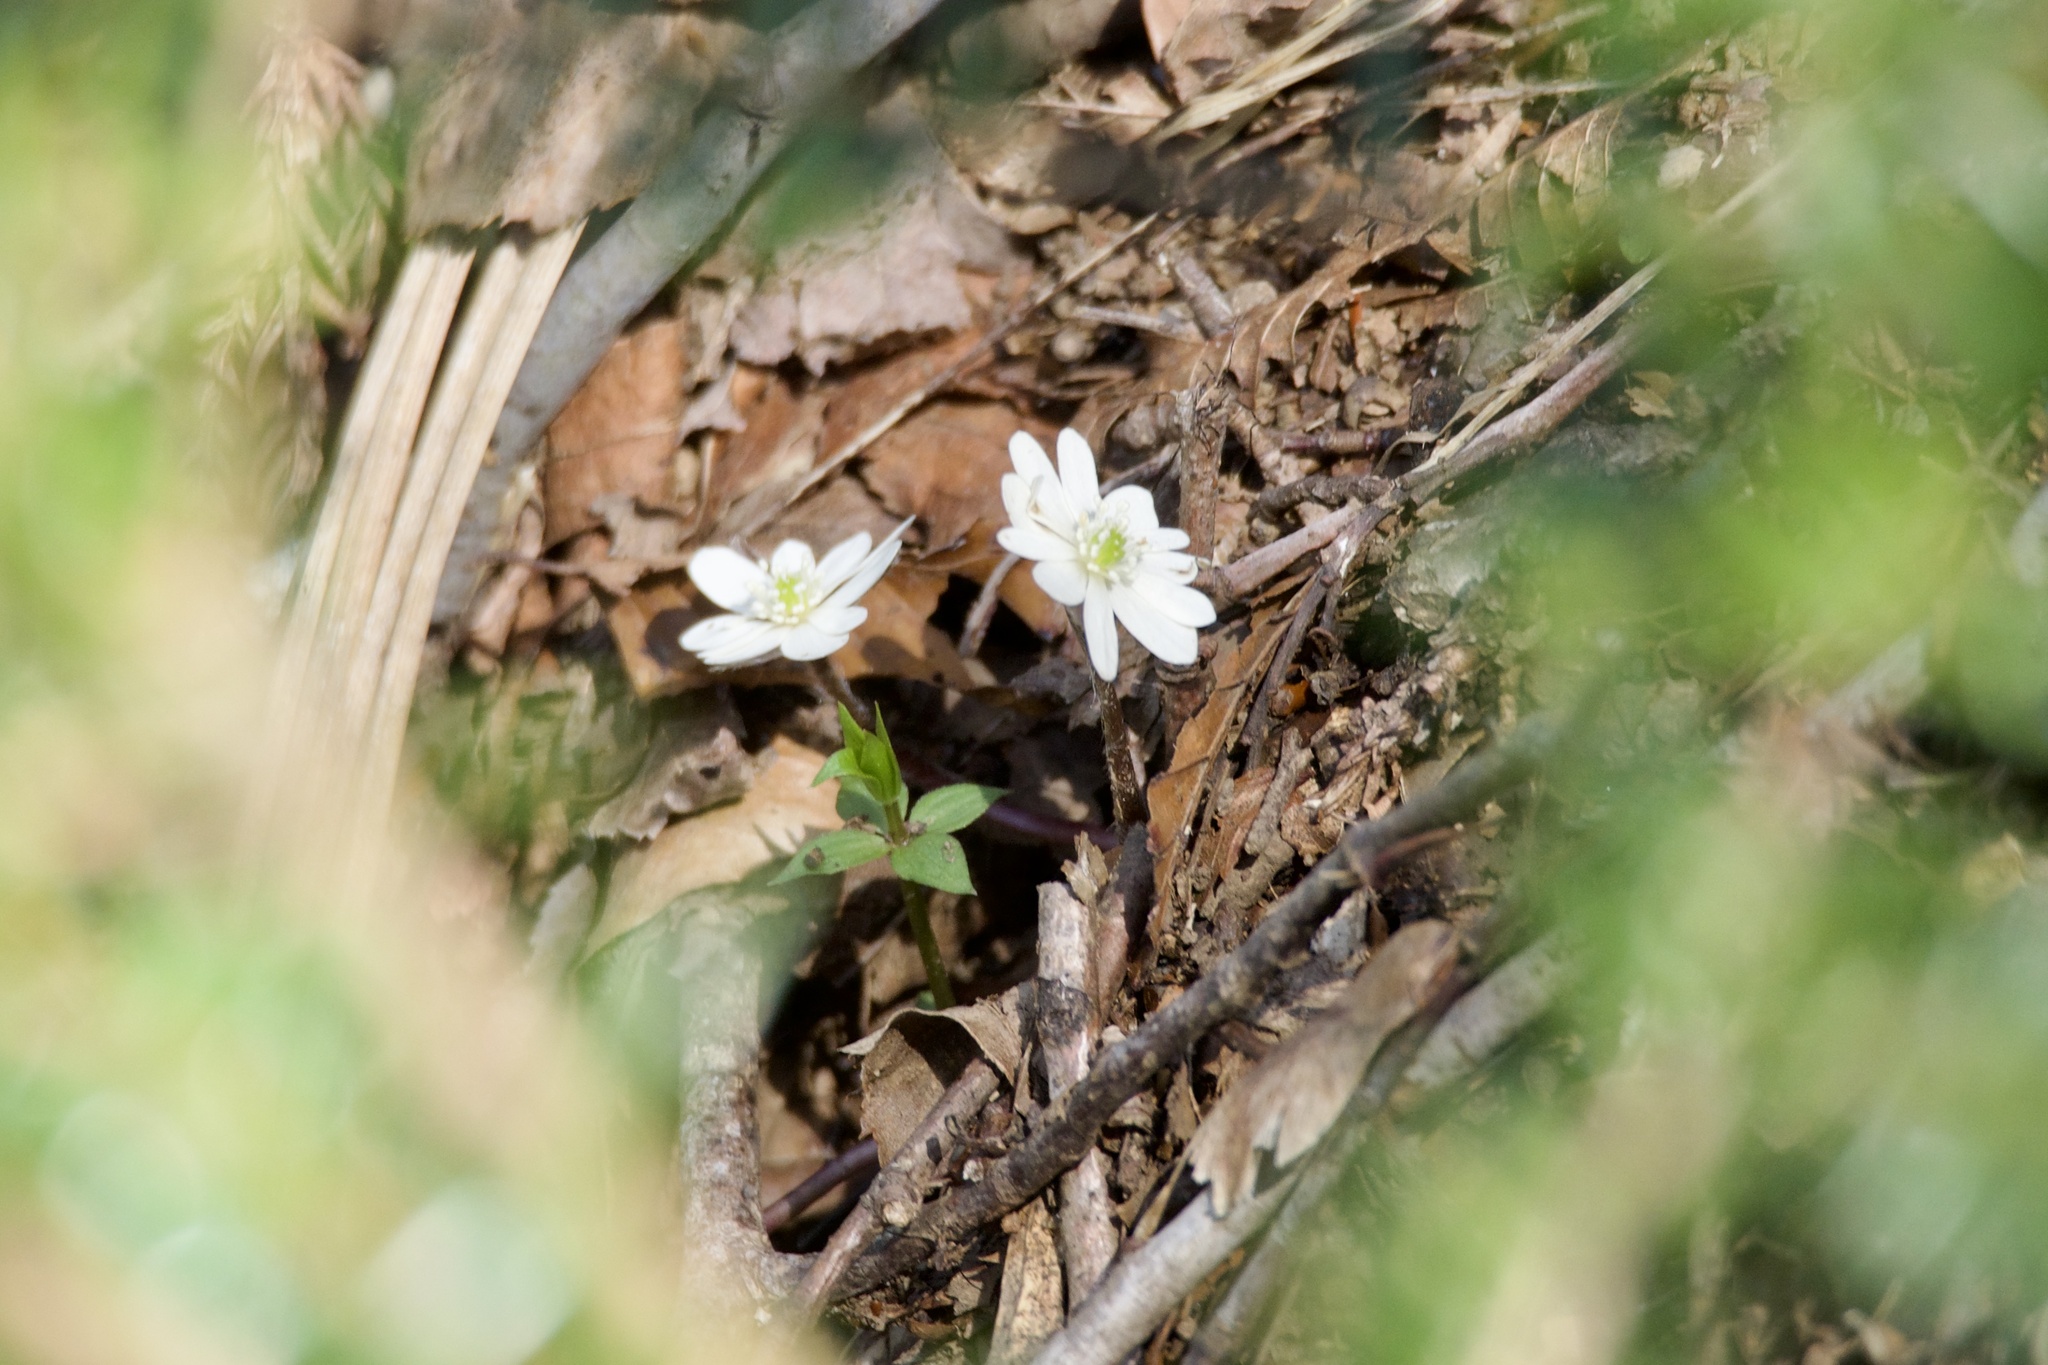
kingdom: Plantae
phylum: Tracheophyta
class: Magnoliopsida
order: Ranunculales
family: Ranunculaceae
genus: Hepatica
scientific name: Hepatica asiatica
